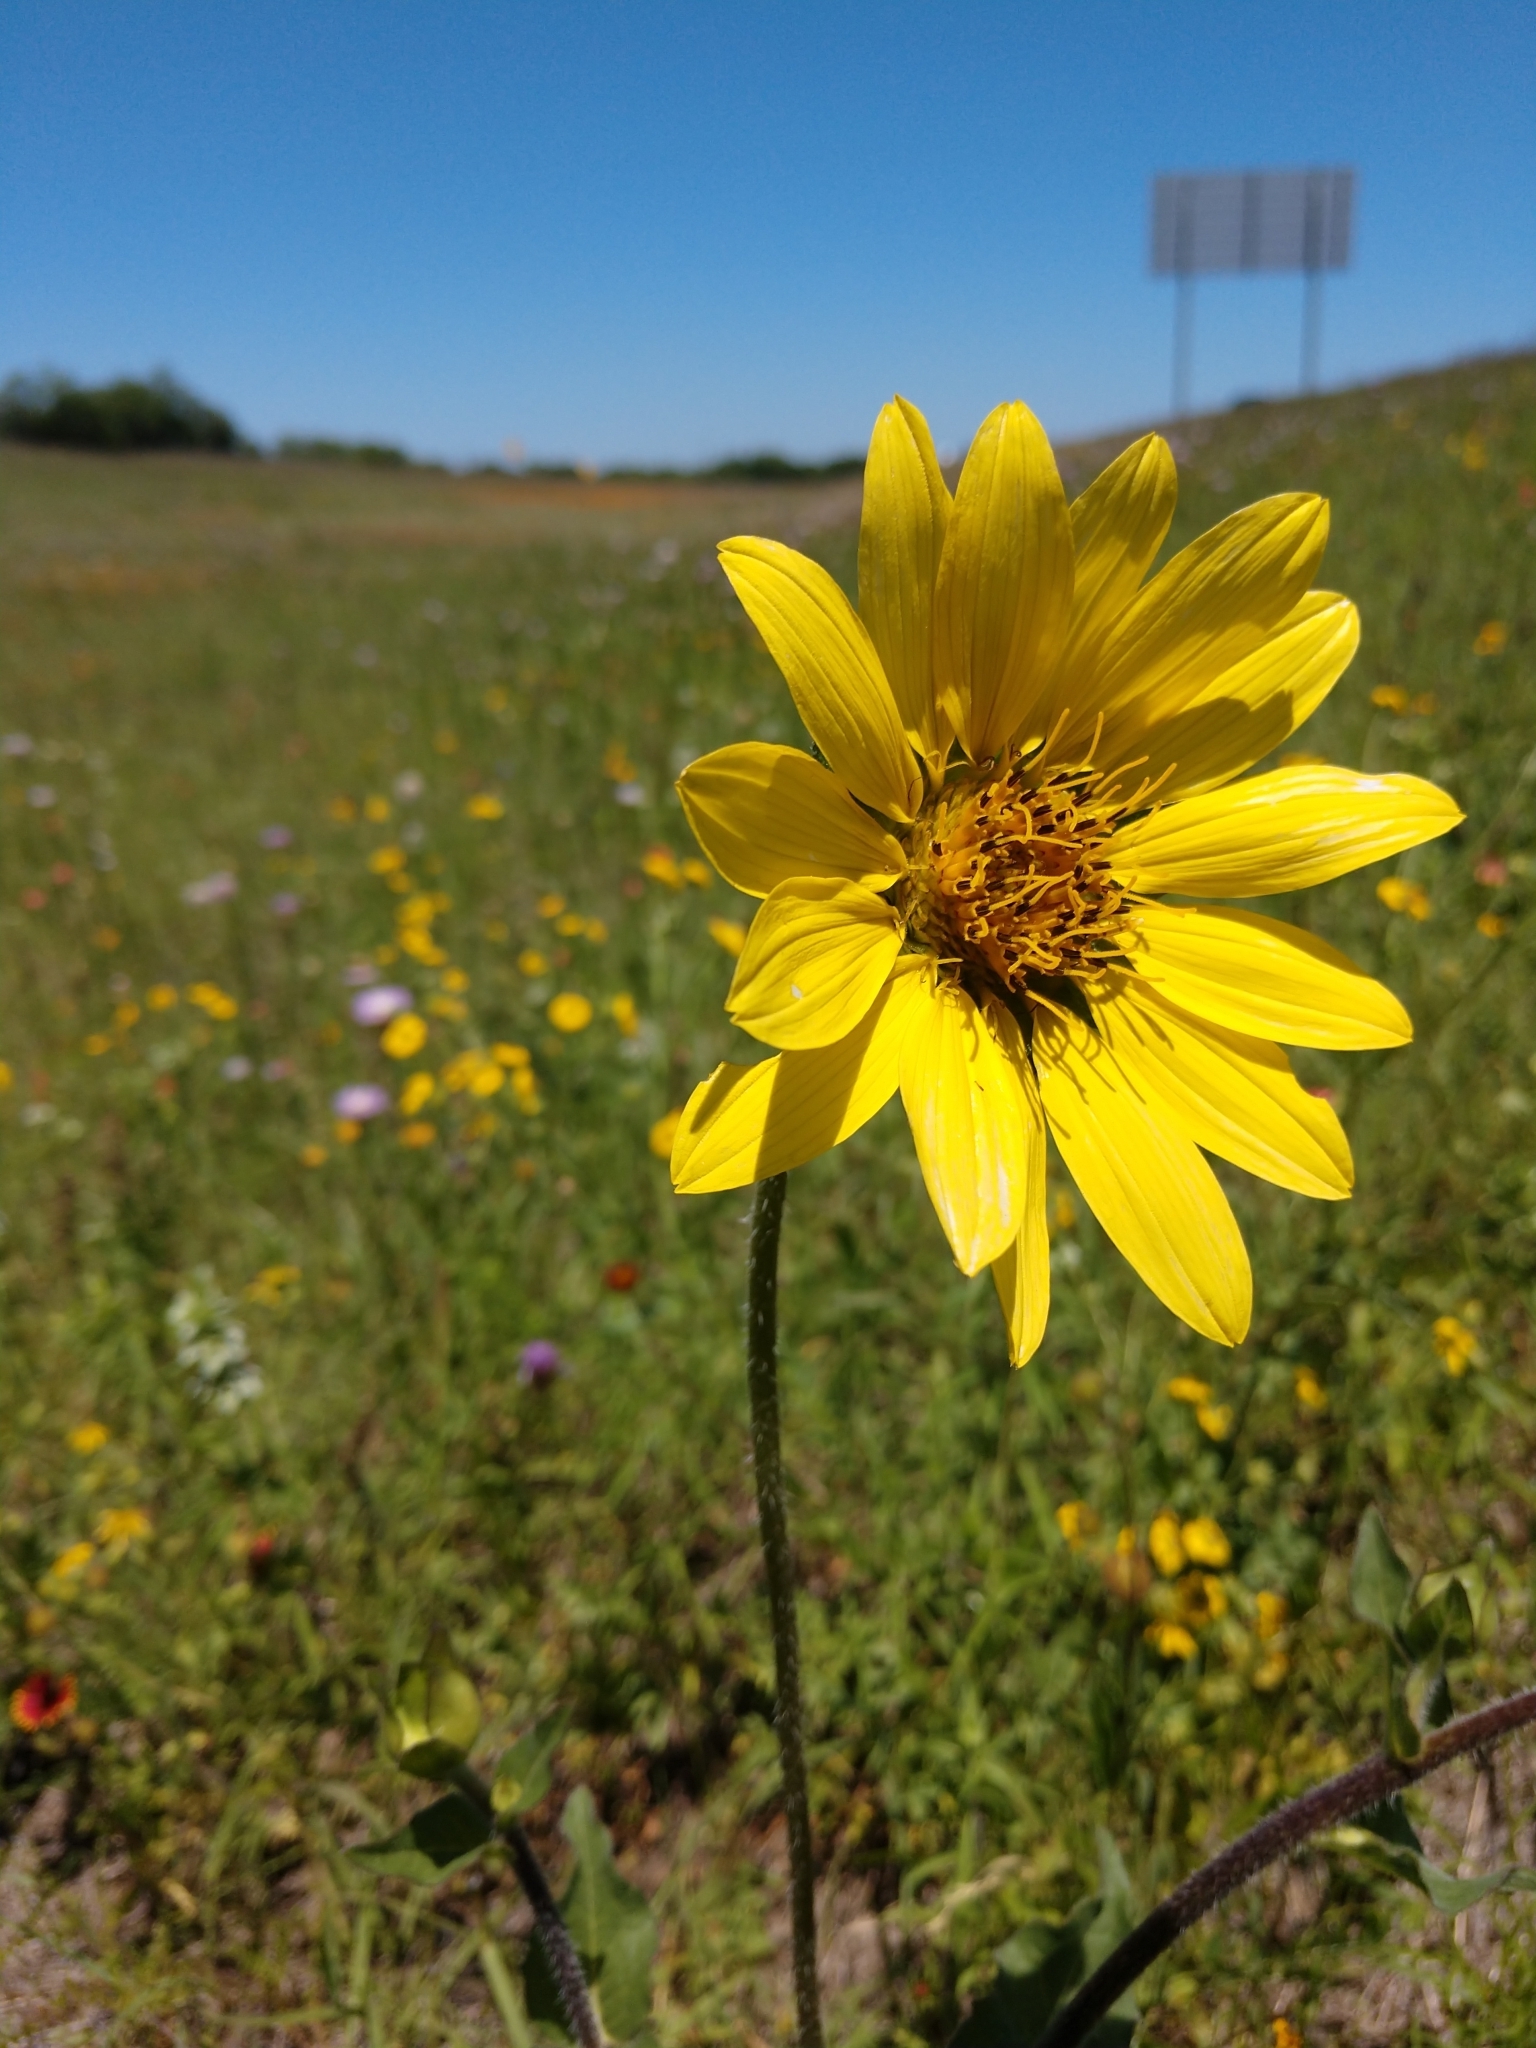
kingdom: Plantae
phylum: Tracheophyta
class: Magnoliopsida
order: Asterales
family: Asteraceae
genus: Silphium
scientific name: Silphium radula
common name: Roughleaf rosinweed
